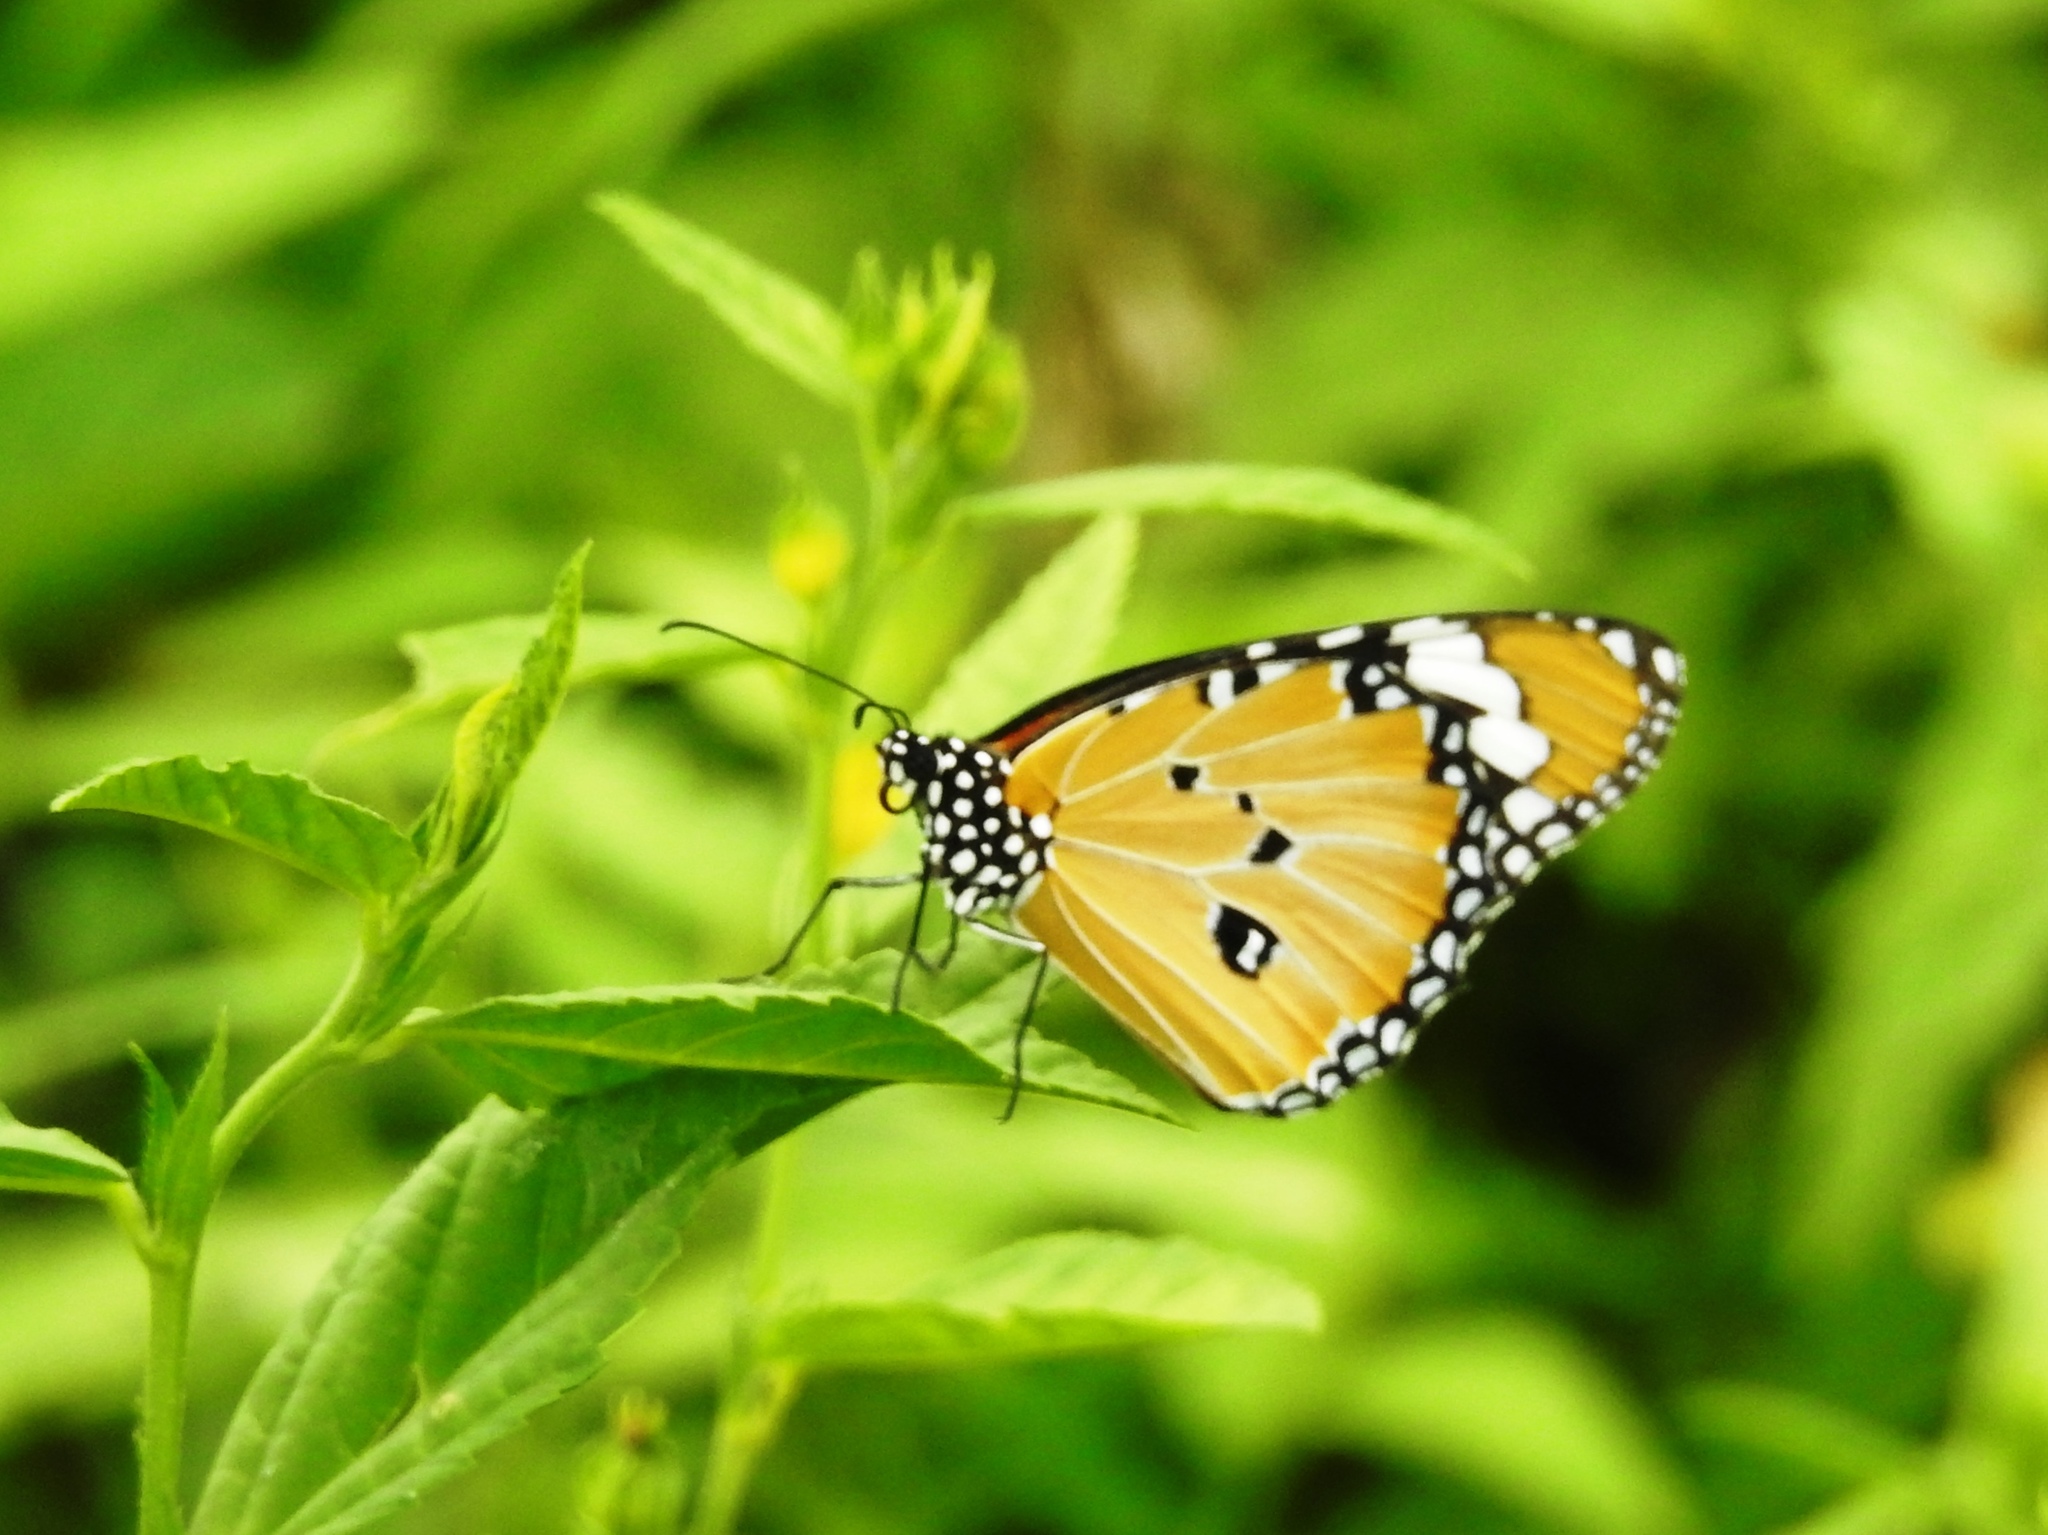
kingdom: Animalia
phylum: Arthropoda
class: Insecta
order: Lepidoptera
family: Nymphalidae
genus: Danaus
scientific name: Danaus chrysippus
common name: Plain tiger
